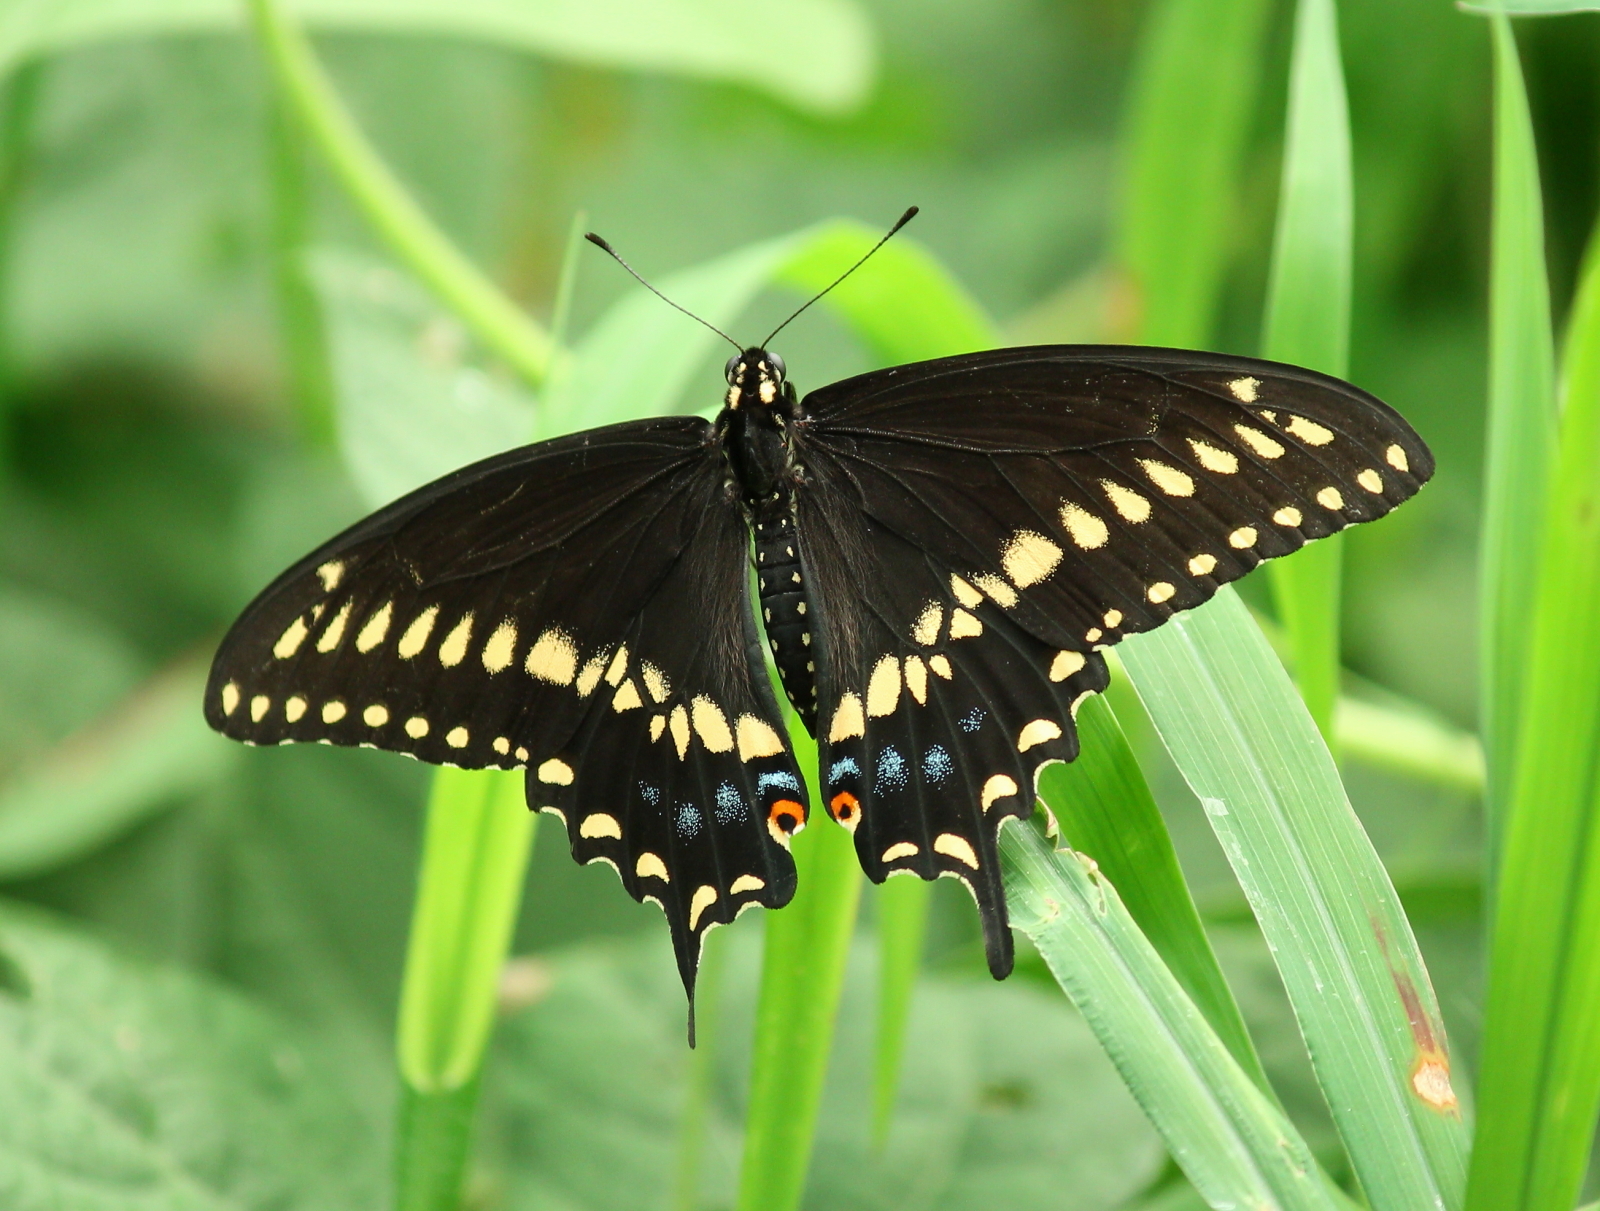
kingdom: Animalia
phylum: Arthropoda
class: Insecta
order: Lepidoptera
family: Papilionidae
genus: Papilio
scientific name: Papilio polyxenes
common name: Black swallowtail
